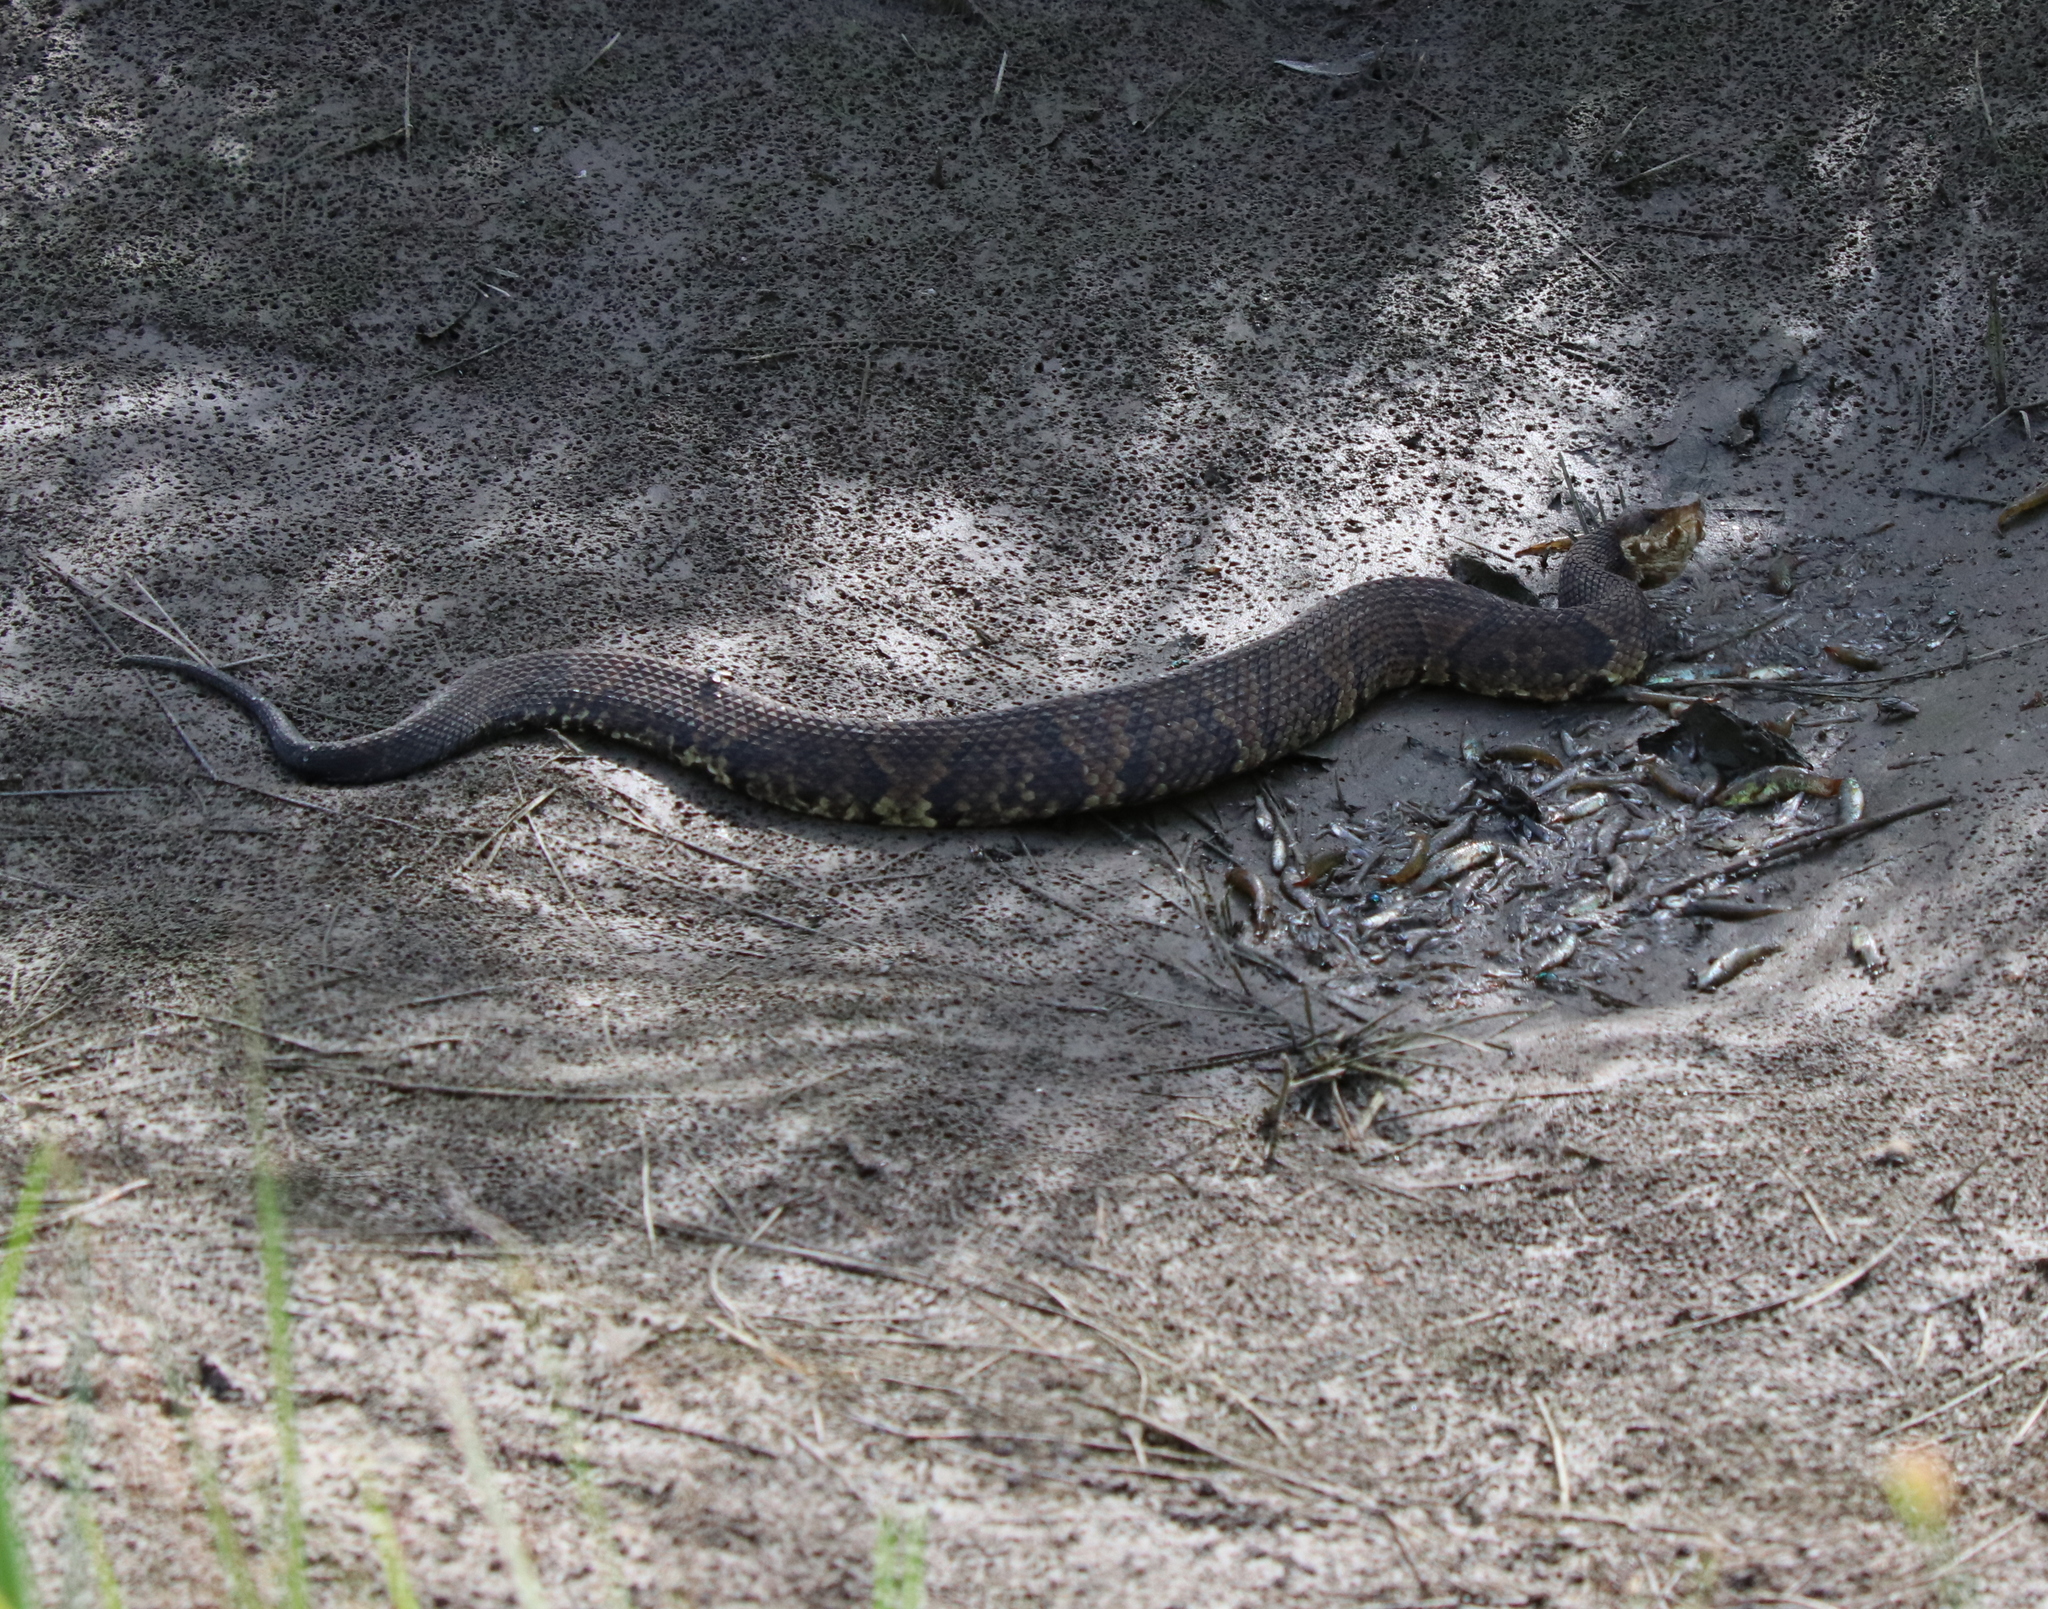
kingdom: Animalia
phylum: Chordata
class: Squamata
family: Viperidae
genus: Agkistrodon
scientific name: Agkistrodon piscivorus
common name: Cottonmouth
